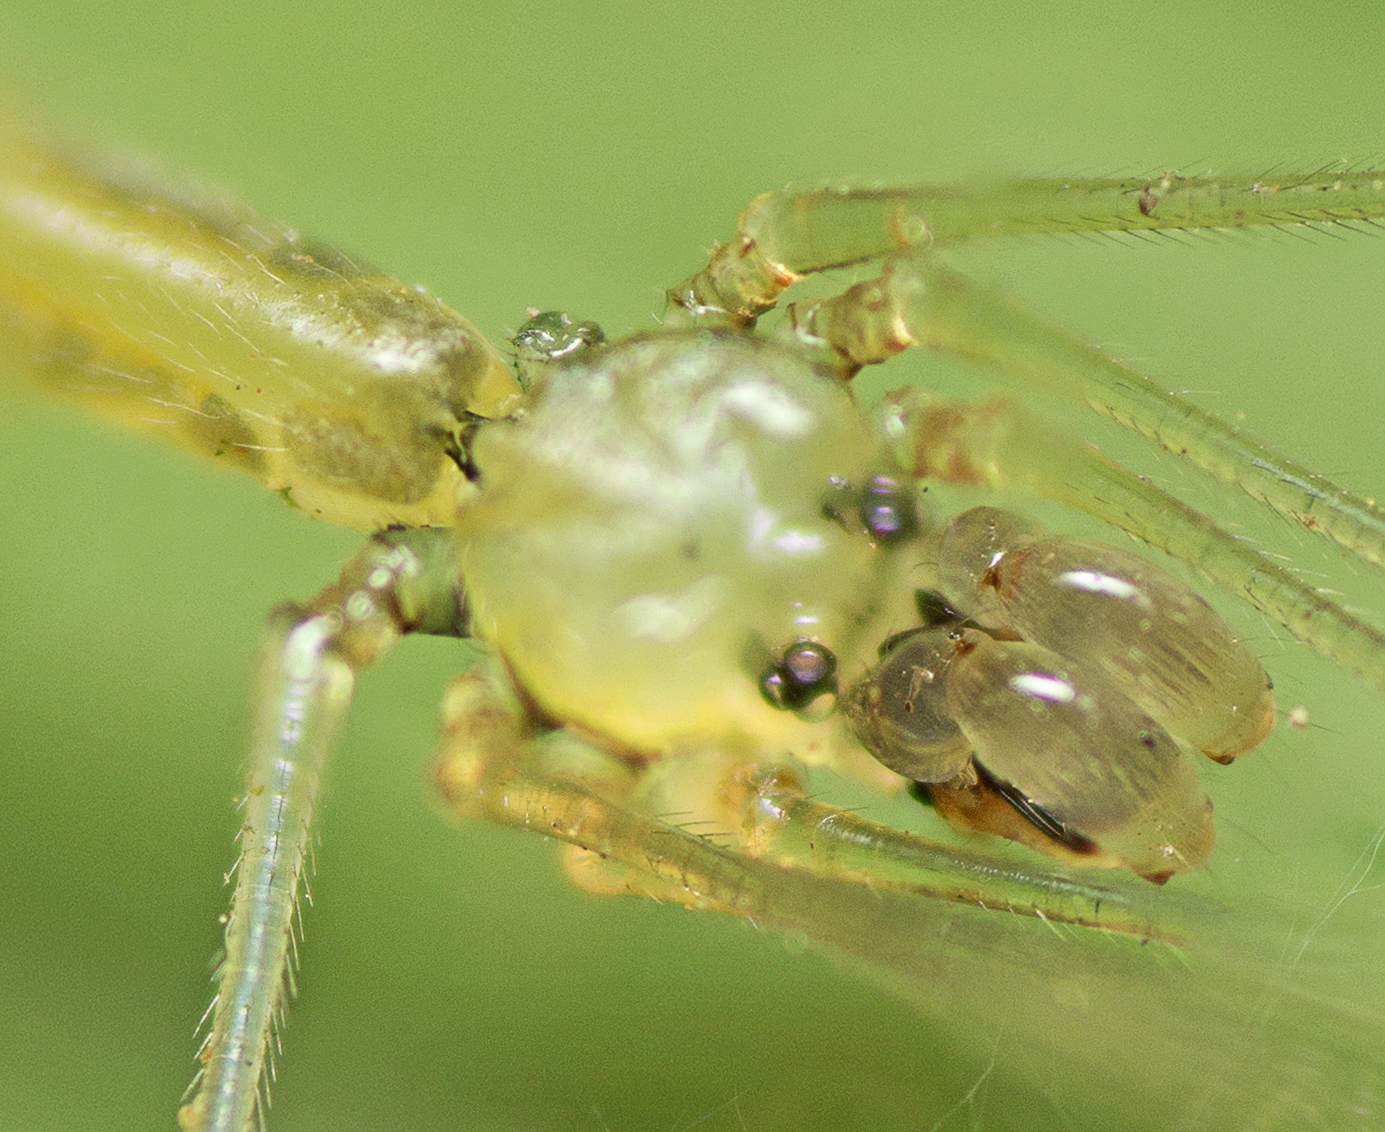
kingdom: Animalia
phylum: Arthropoda
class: Arachnida
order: Araneae
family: Pholcidae
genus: Micromerys
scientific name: Micromerys raveni
